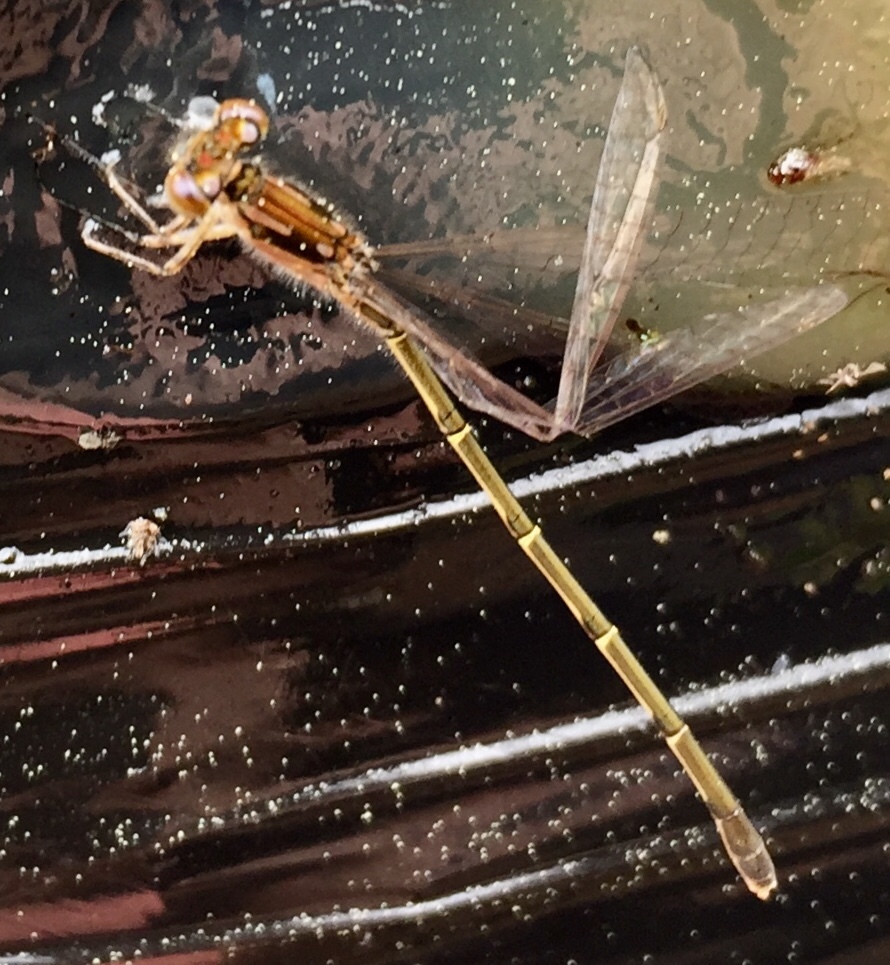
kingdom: Animalia
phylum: Arthropoda
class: Insecta
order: Odonata
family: Coenagrionidae
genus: Ischnura
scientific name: Ischnura posita
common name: Fragile forktail
